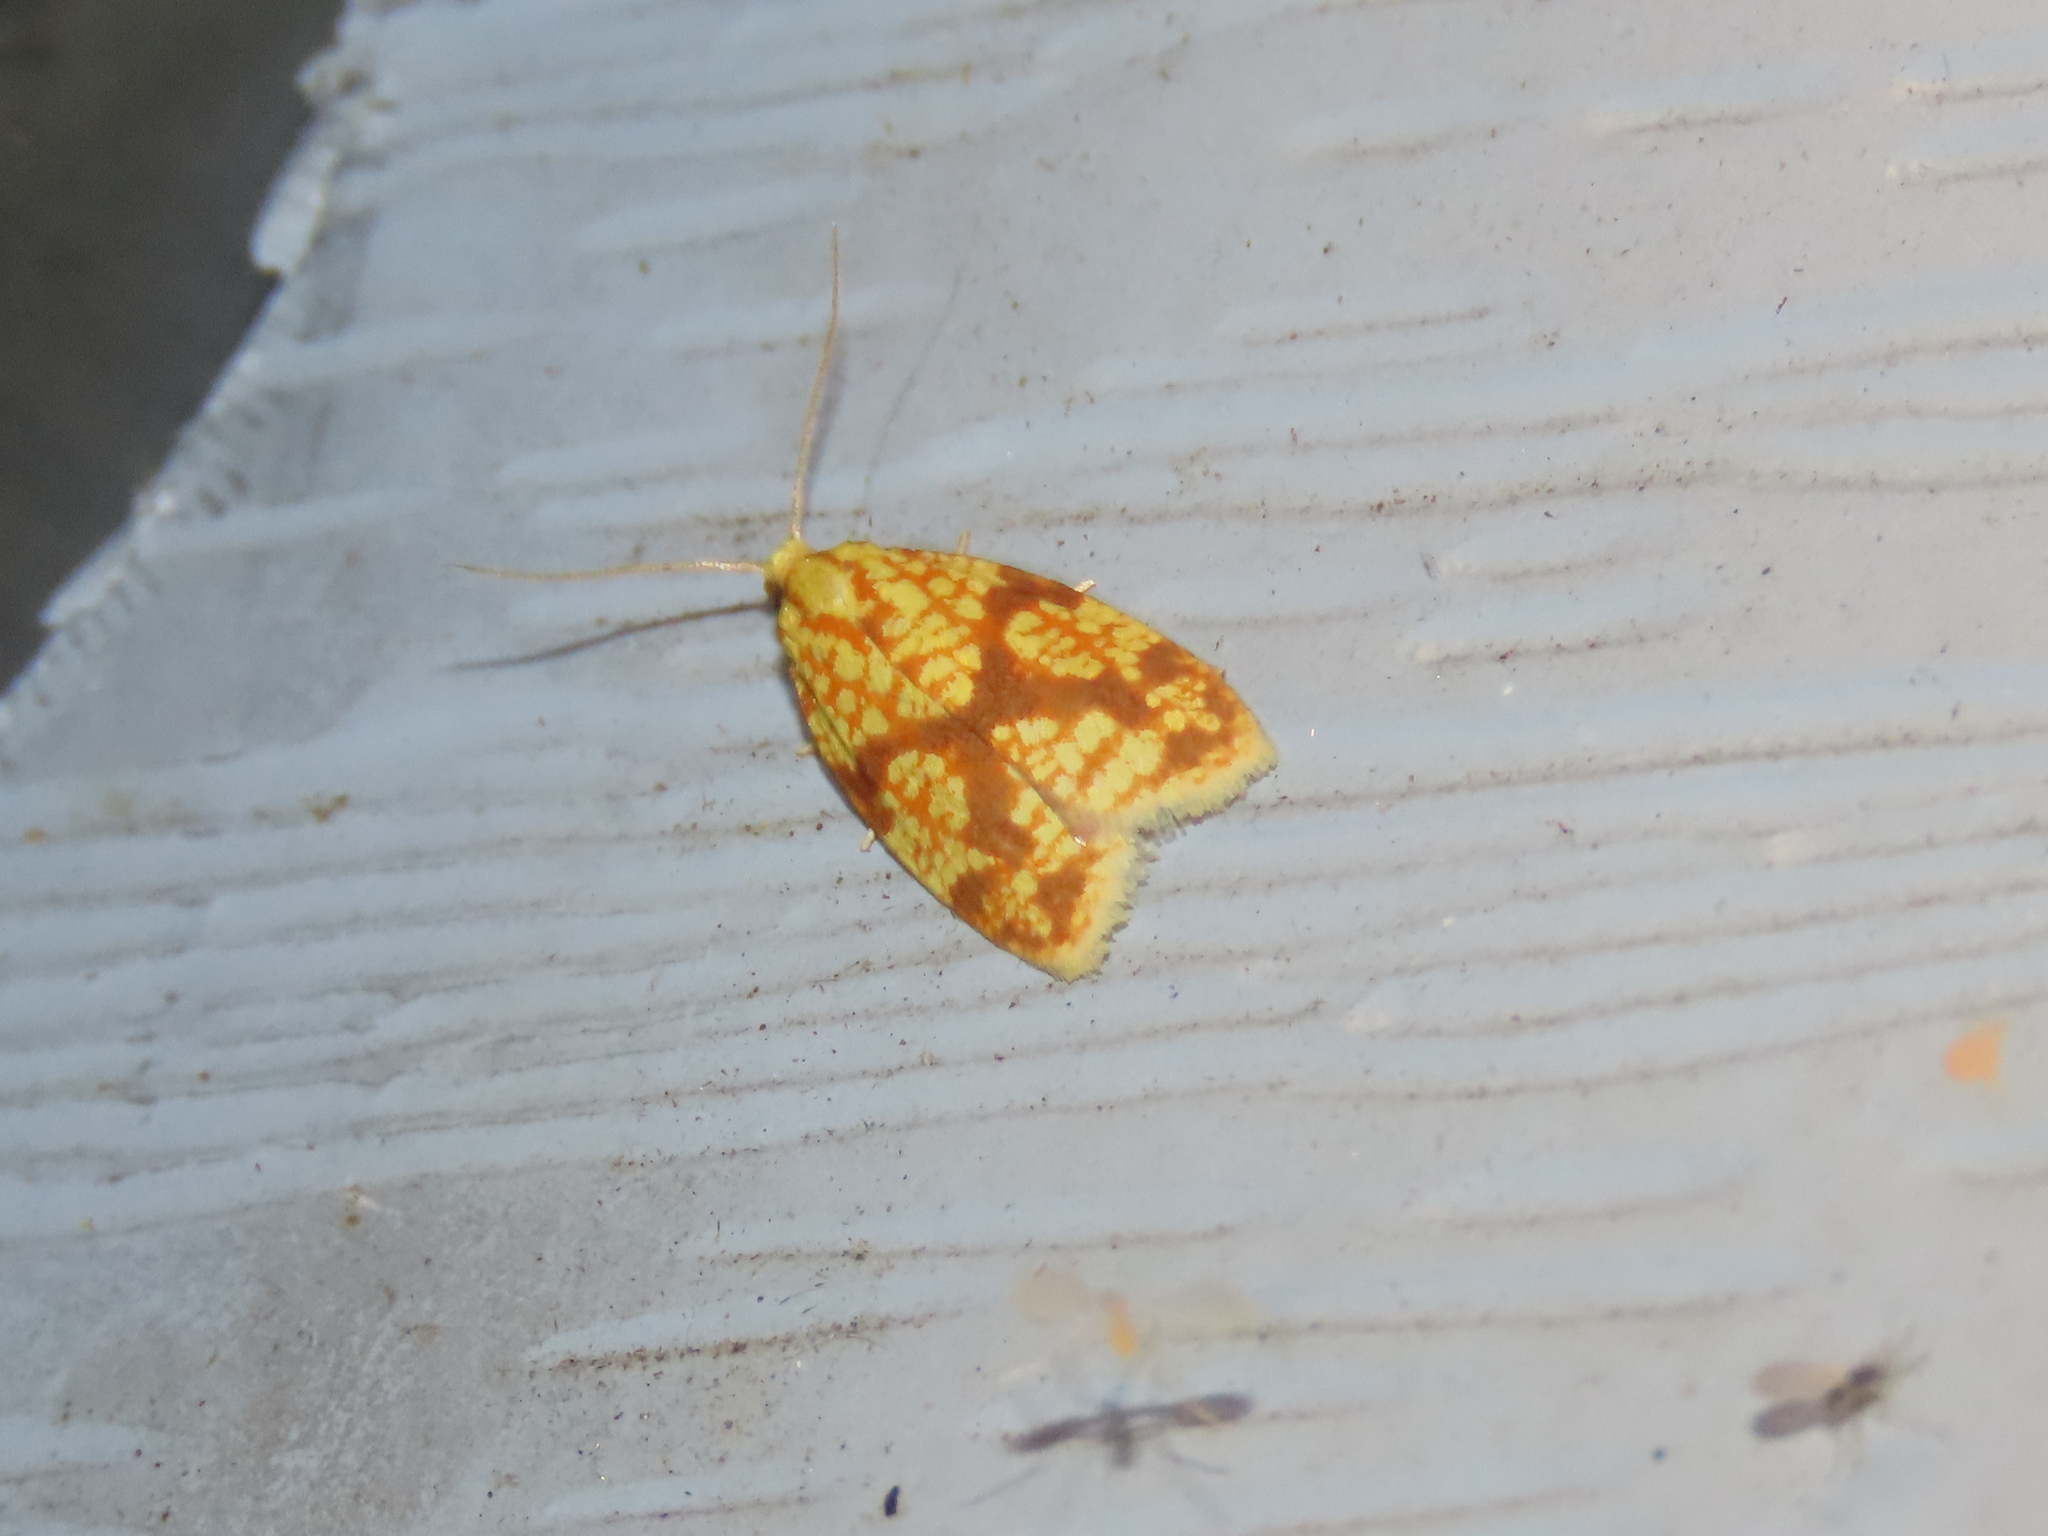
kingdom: Animalia
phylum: Arthropoda
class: Insecta
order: Lepidoptera
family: Tortricidae
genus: Sparganothis
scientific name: Sparganothis sulfureana
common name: Sparganothis fruitworm moth
